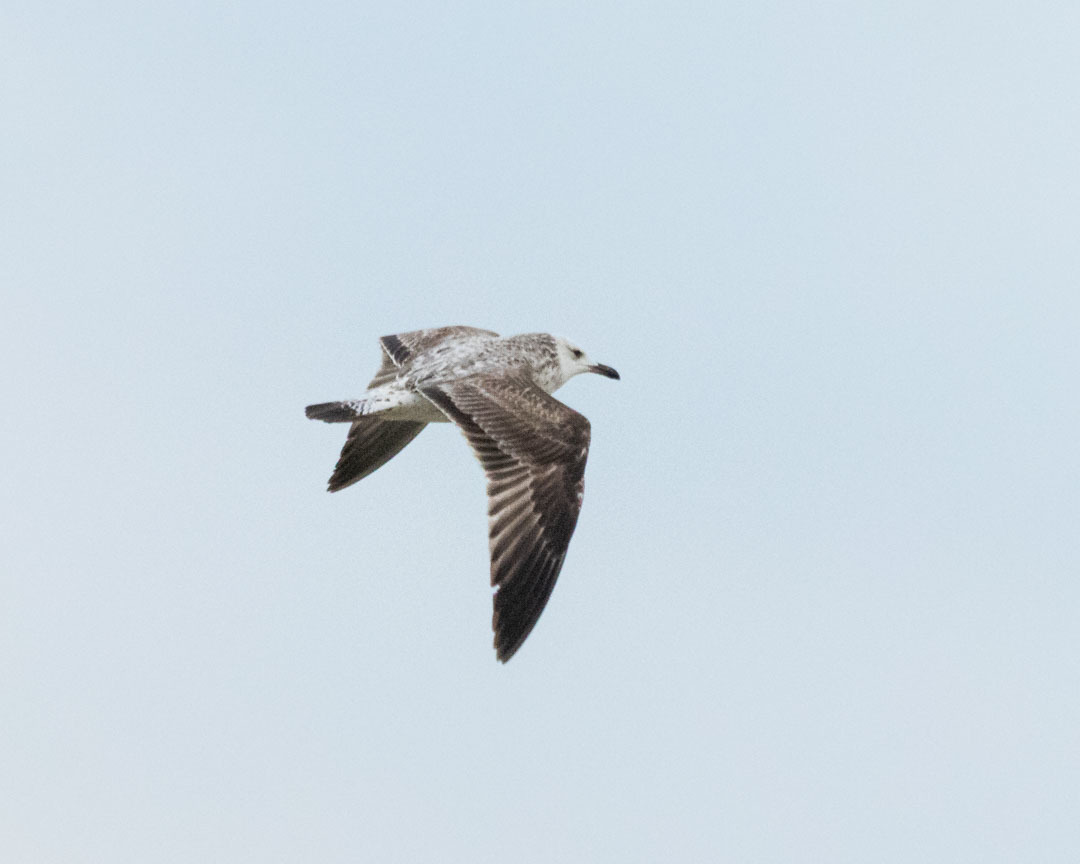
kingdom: Animalia
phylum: Chordata
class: Aves
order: Charadriiformes
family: Laridae
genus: Larus
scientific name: Larus cachinnans
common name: Caspian gull
